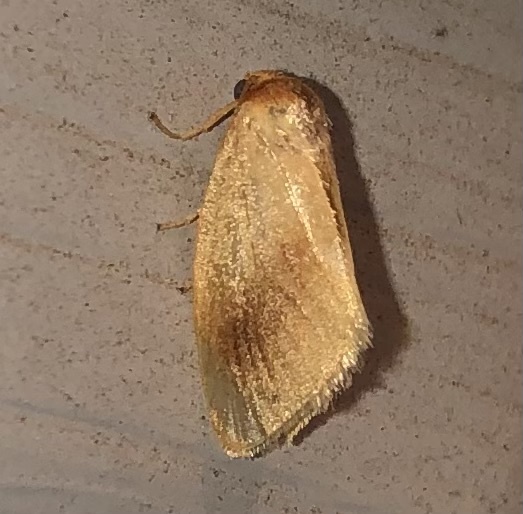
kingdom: Animalia
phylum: Arthropoda
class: Insecta
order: Lepidoptera
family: Limacodidae
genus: Tortricidia
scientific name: Tortricidia testacea
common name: Early button slug moth
